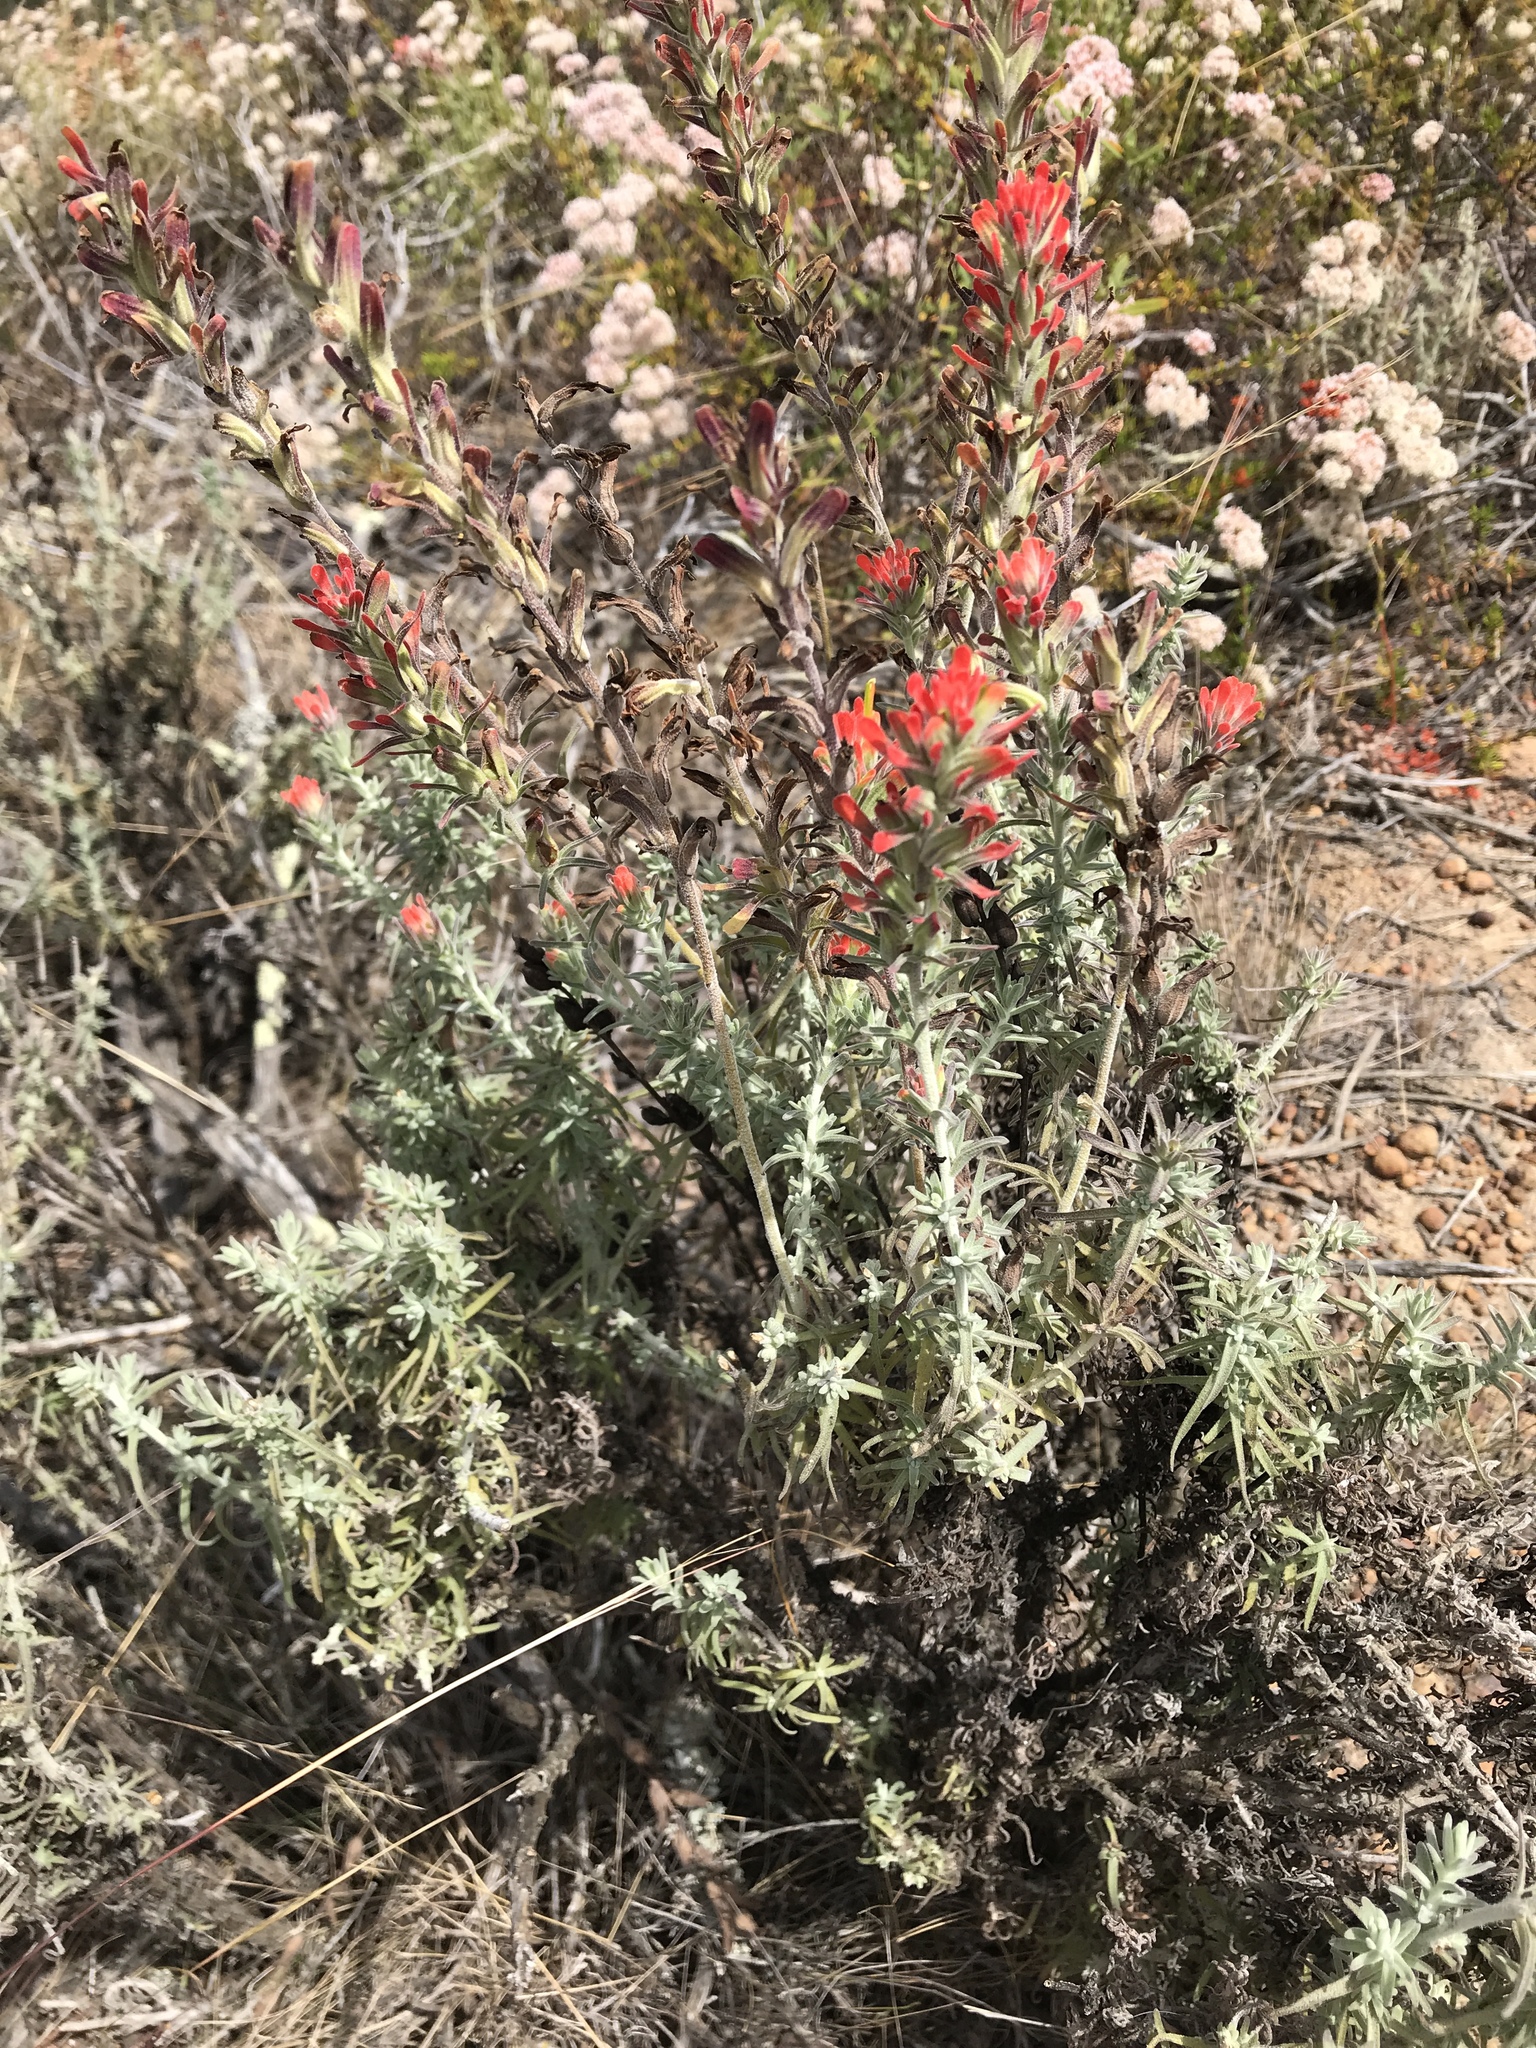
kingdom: Plantae
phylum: Tracheophyta
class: Magnoliopsida
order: Lamiales
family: Orobanchaceae
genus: Castilleja
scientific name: Castilleja foliolosa
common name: Woolly indian paintbrush
